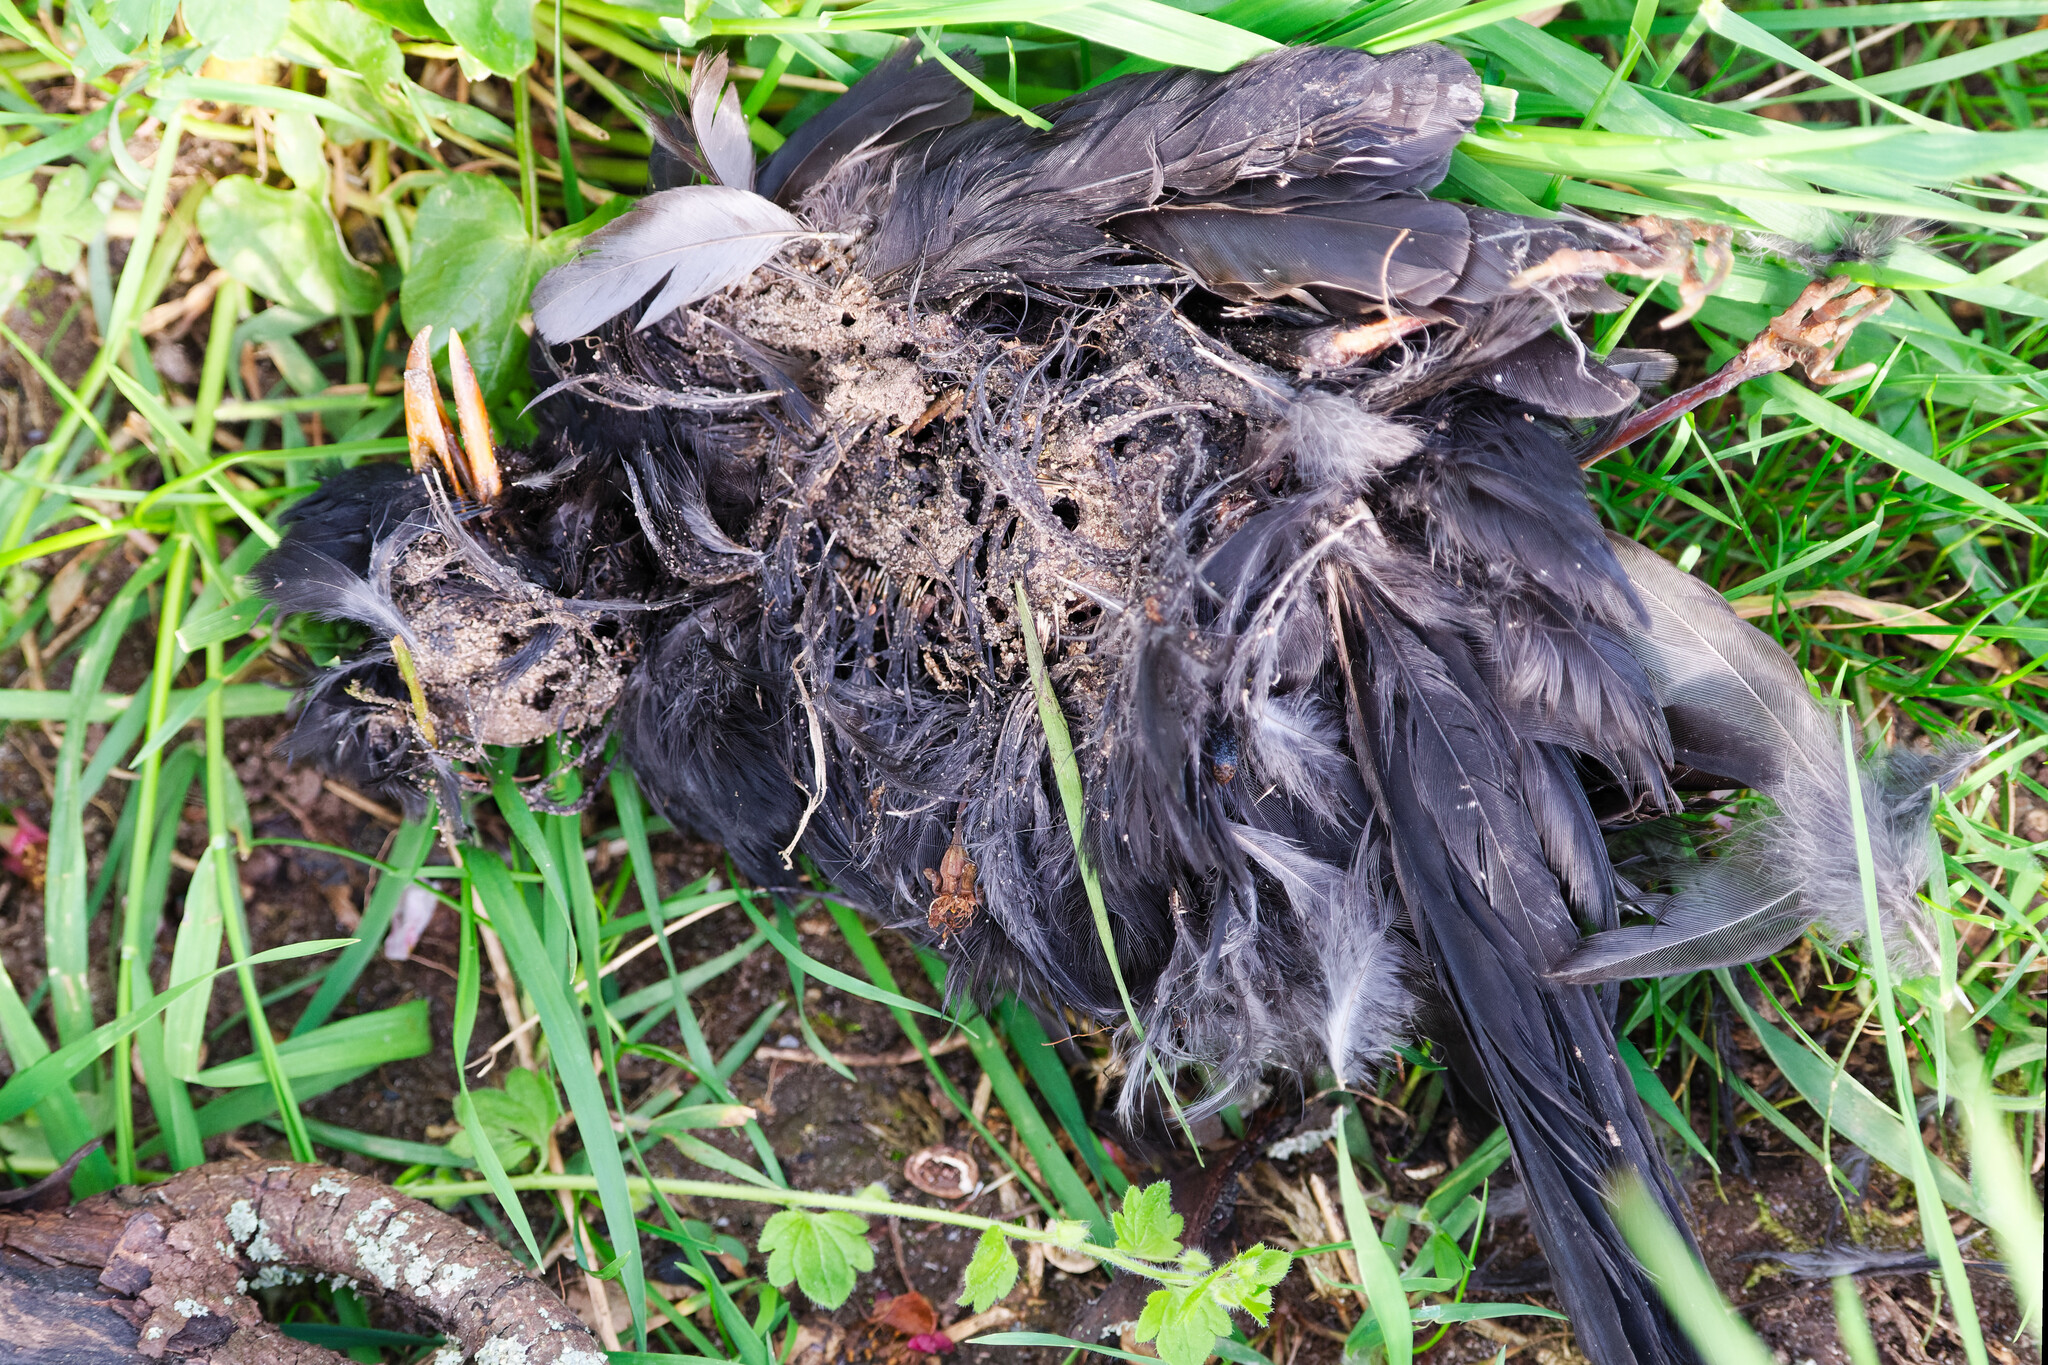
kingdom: Animalia
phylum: Chordata
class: Aves
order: Passeriformes
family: Turdidae
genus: Turdus
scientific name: Turdus merula
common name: Common blackbird
